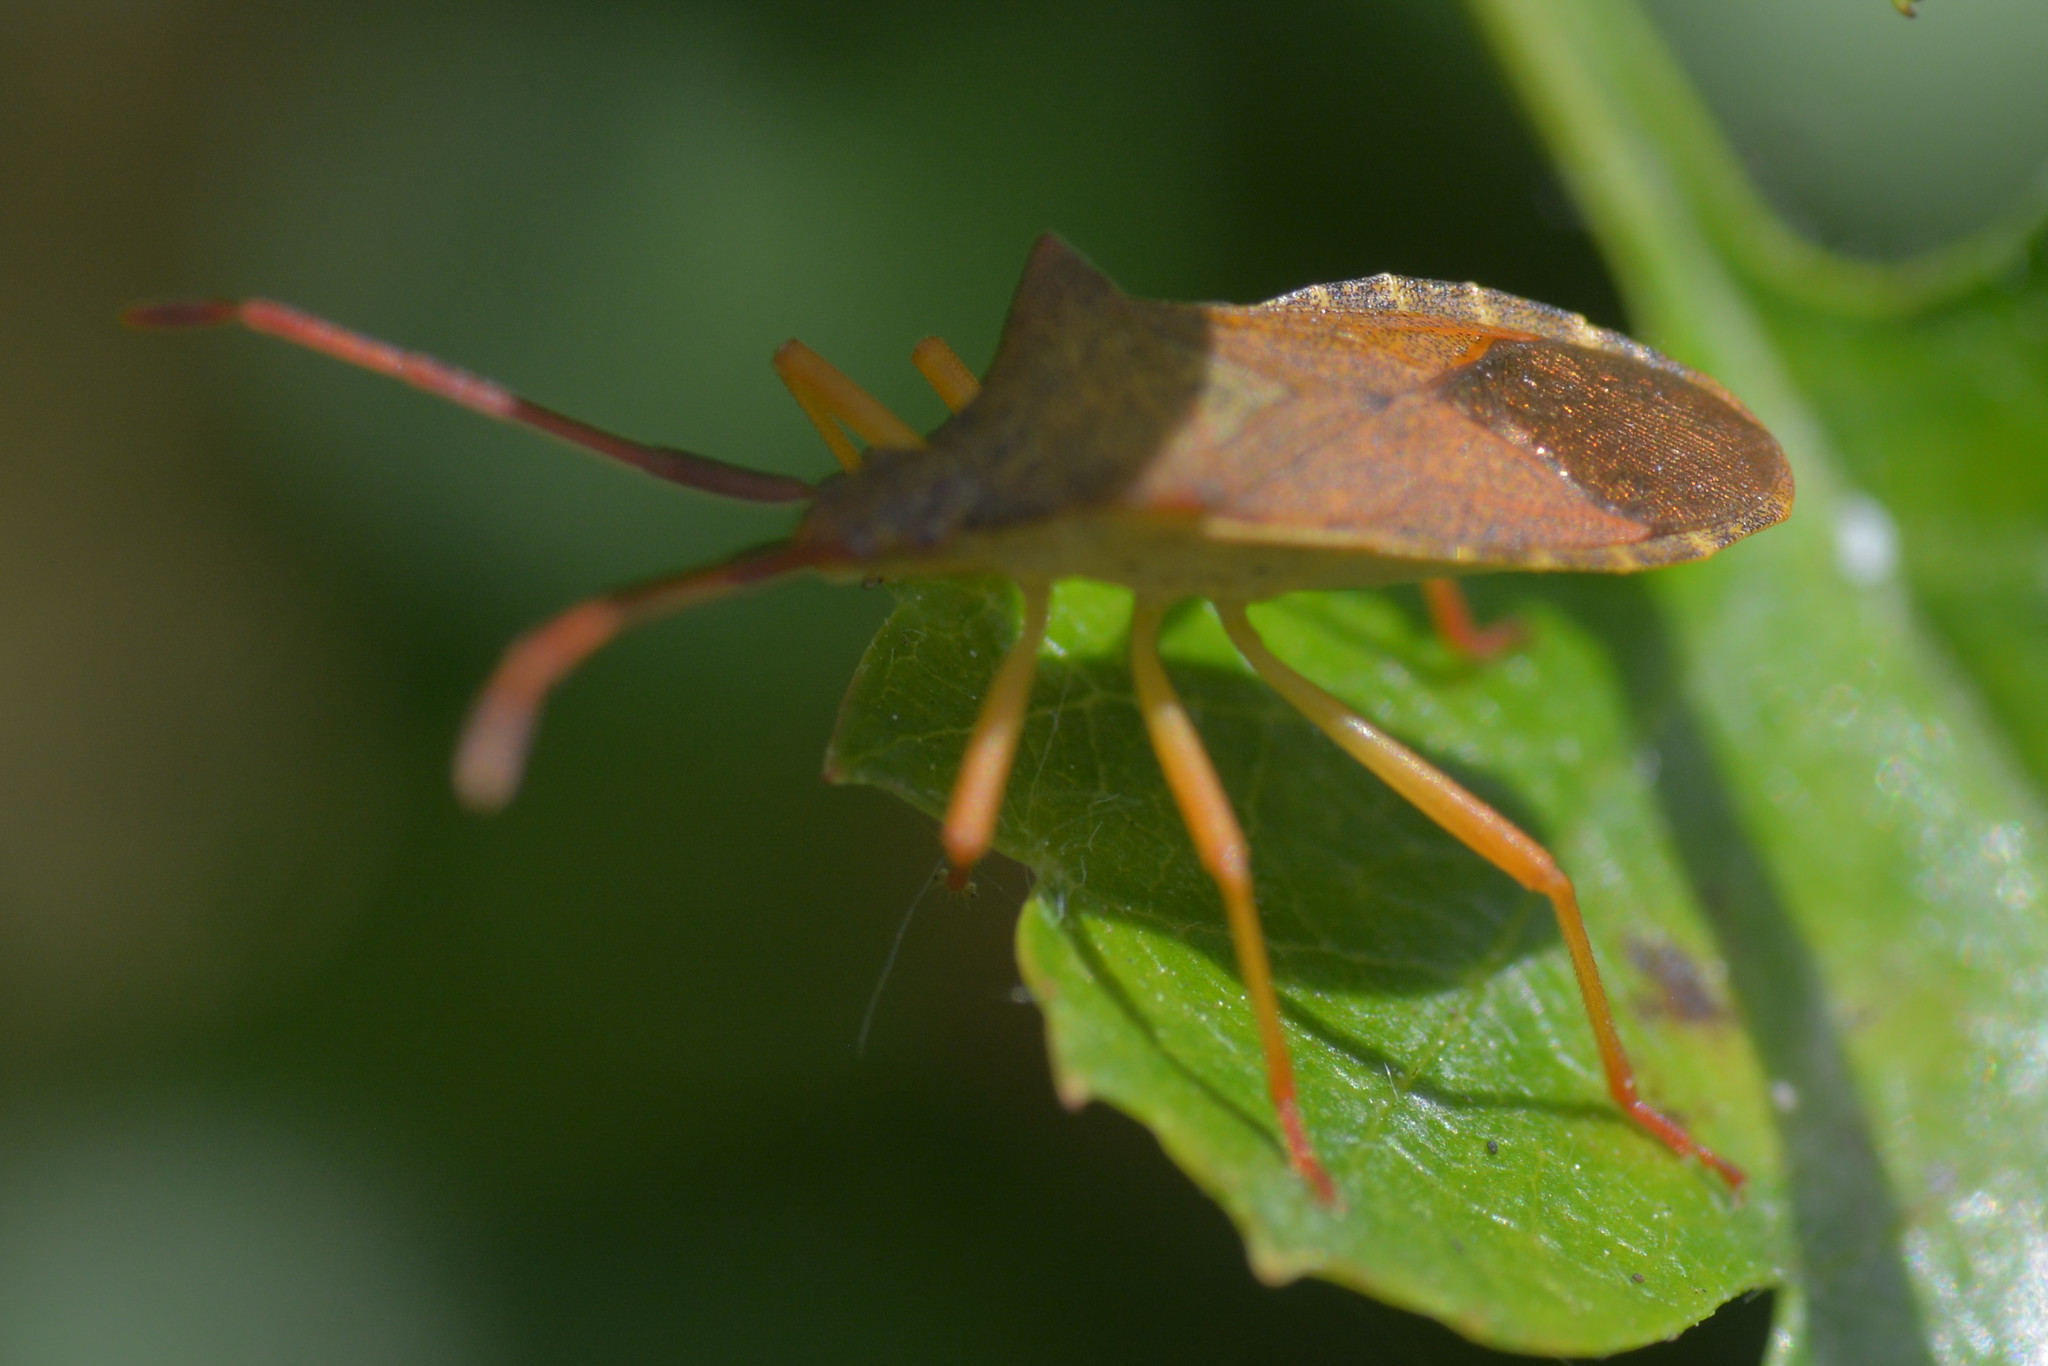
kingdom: Animalia
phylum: Arthropoda
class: Insecta
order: Hemiptera
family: Coreidae
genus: Gonocerus
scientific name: Gonocerus acuteangulatus
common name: Box bug
